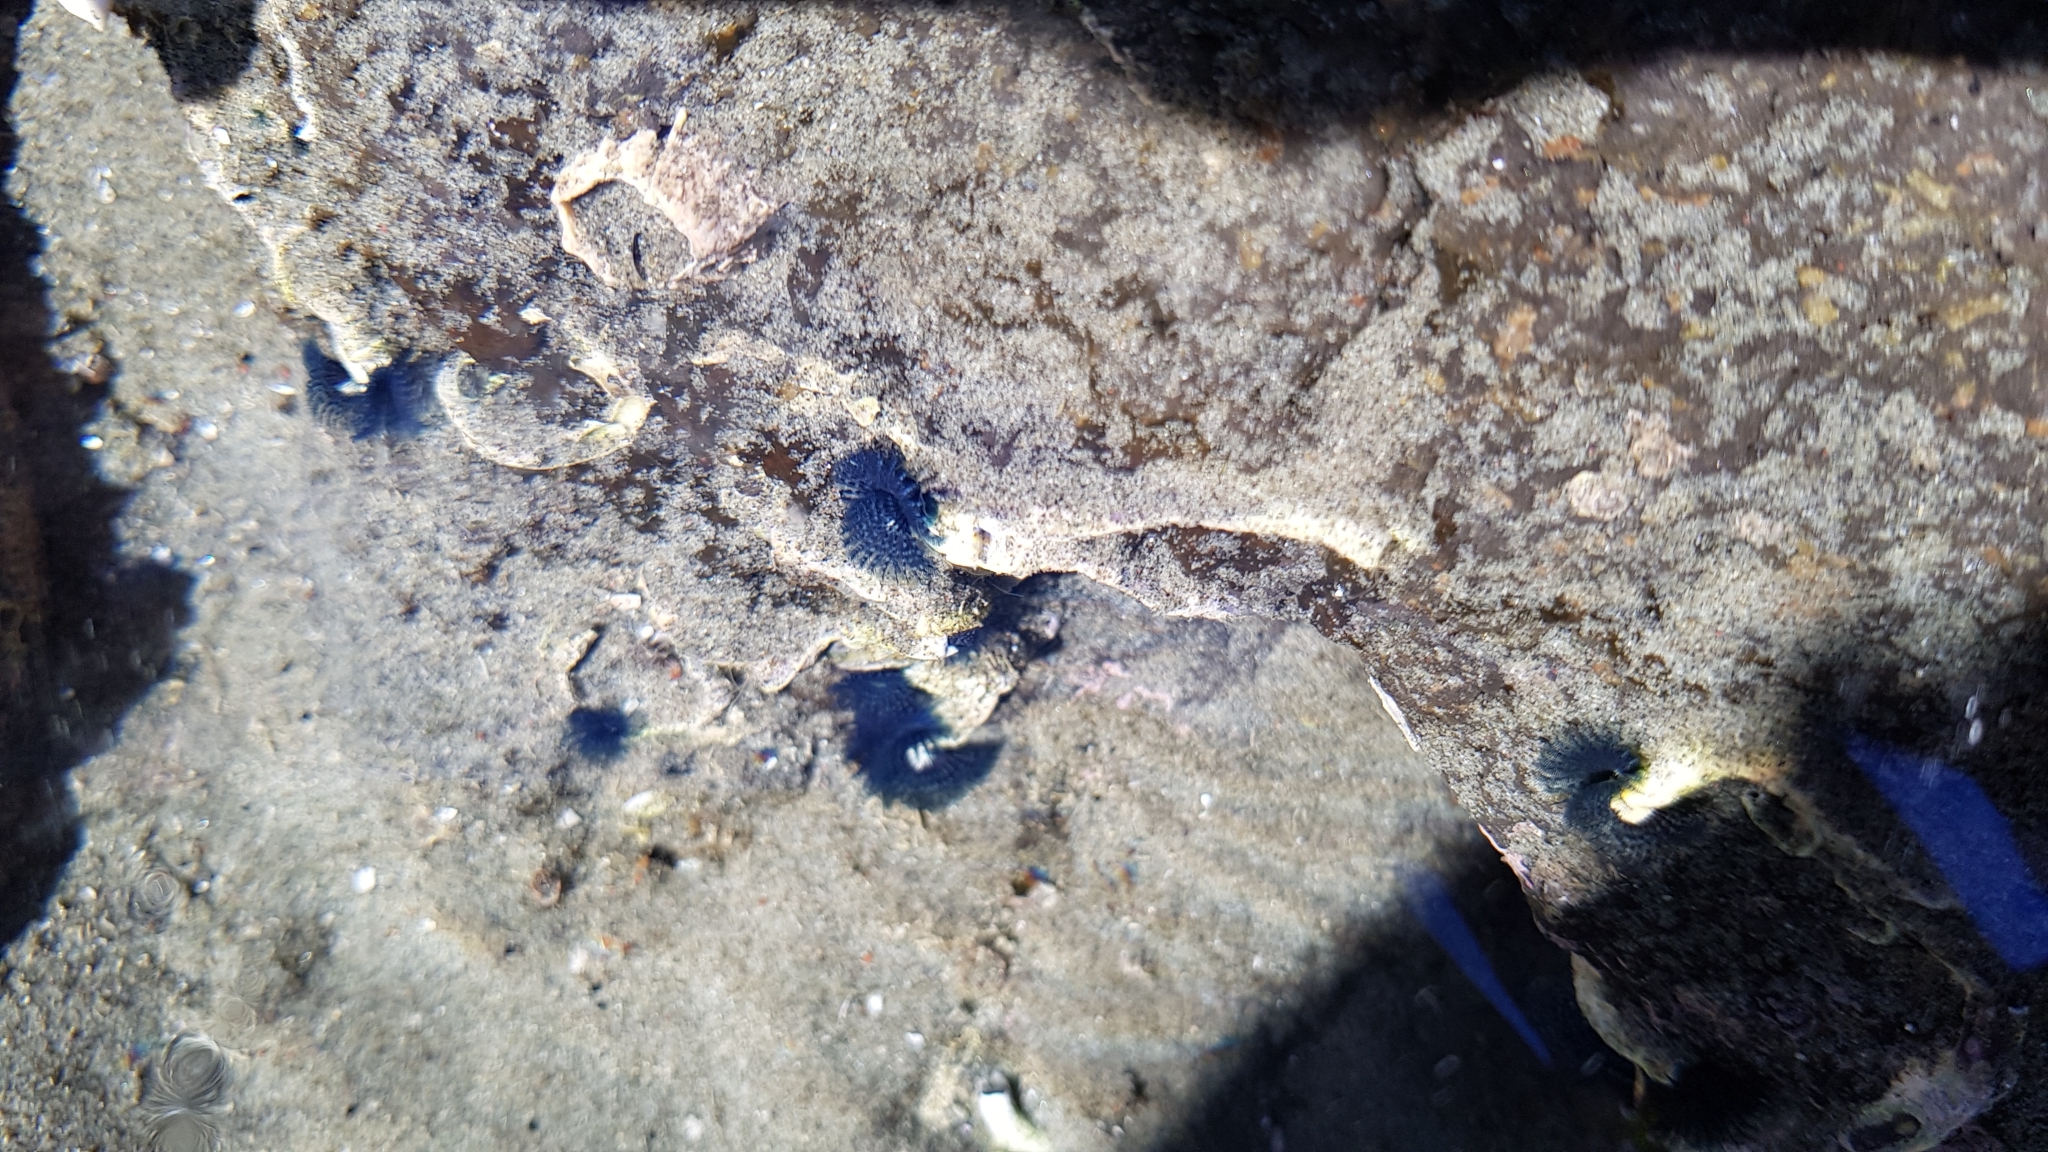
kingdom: Animalia
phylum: Annelida
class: Polychaeta
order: Sabellida
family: Serpulidae
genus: Spirobranchus
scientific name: Spirobranchus cariniferus
